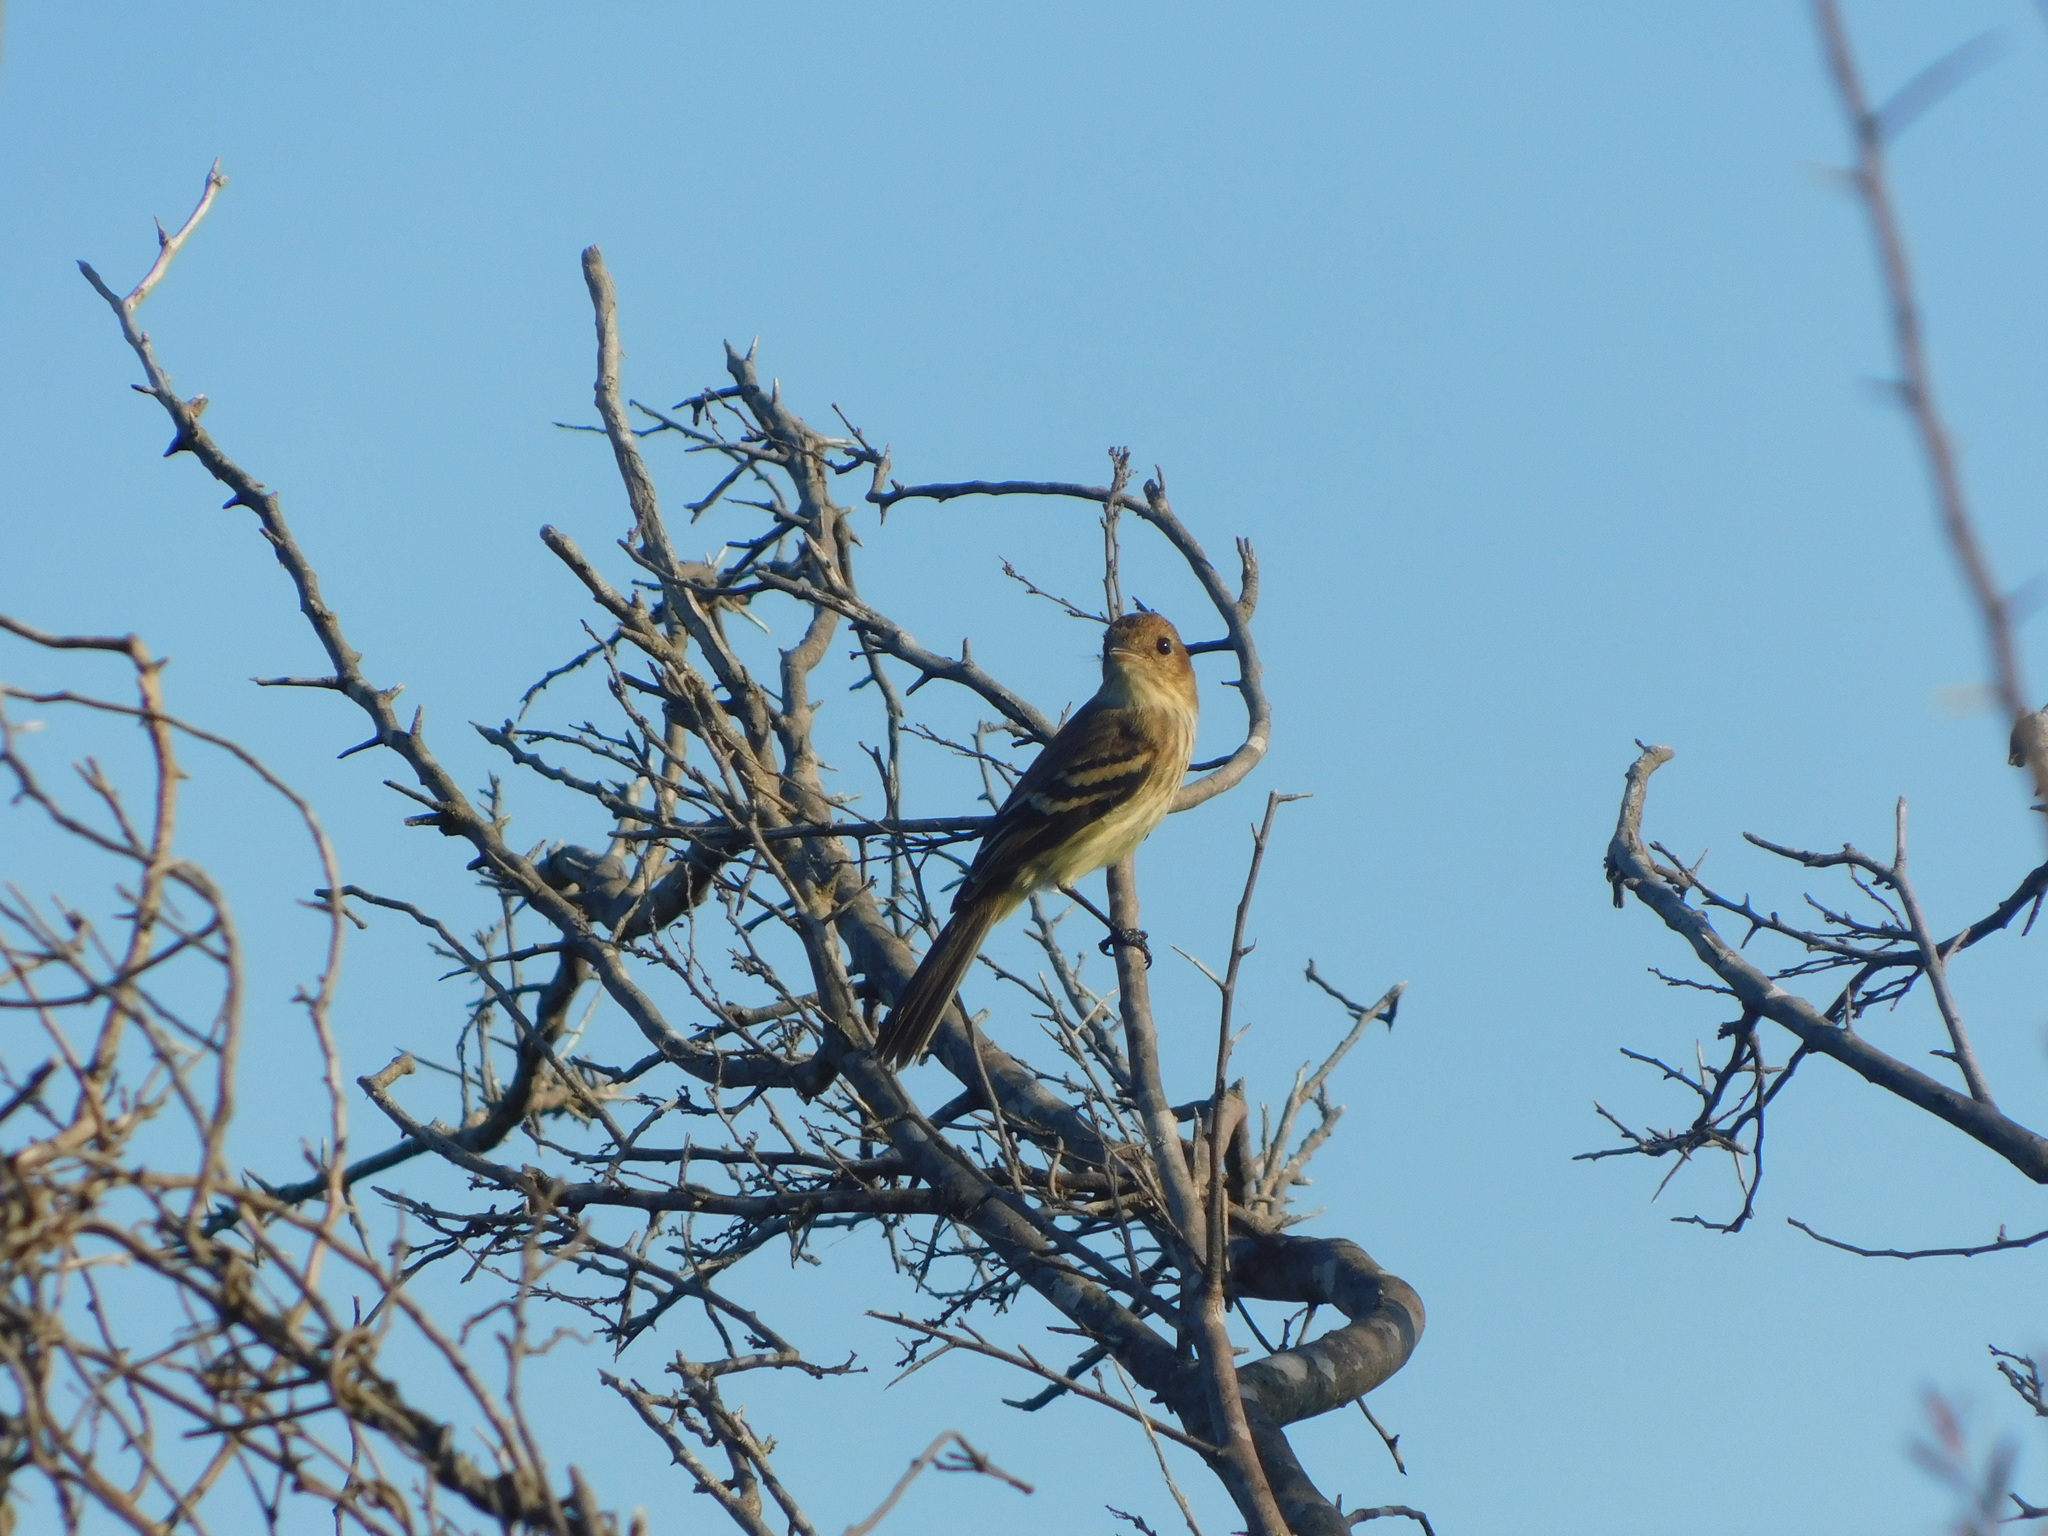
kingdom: Animalia
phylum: Chordata
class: Aves
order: Passeriformes
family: Tyrannidae
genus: Myiophobus
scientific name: Myiophobus fasciatus
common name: Bran-colored flycatcher
